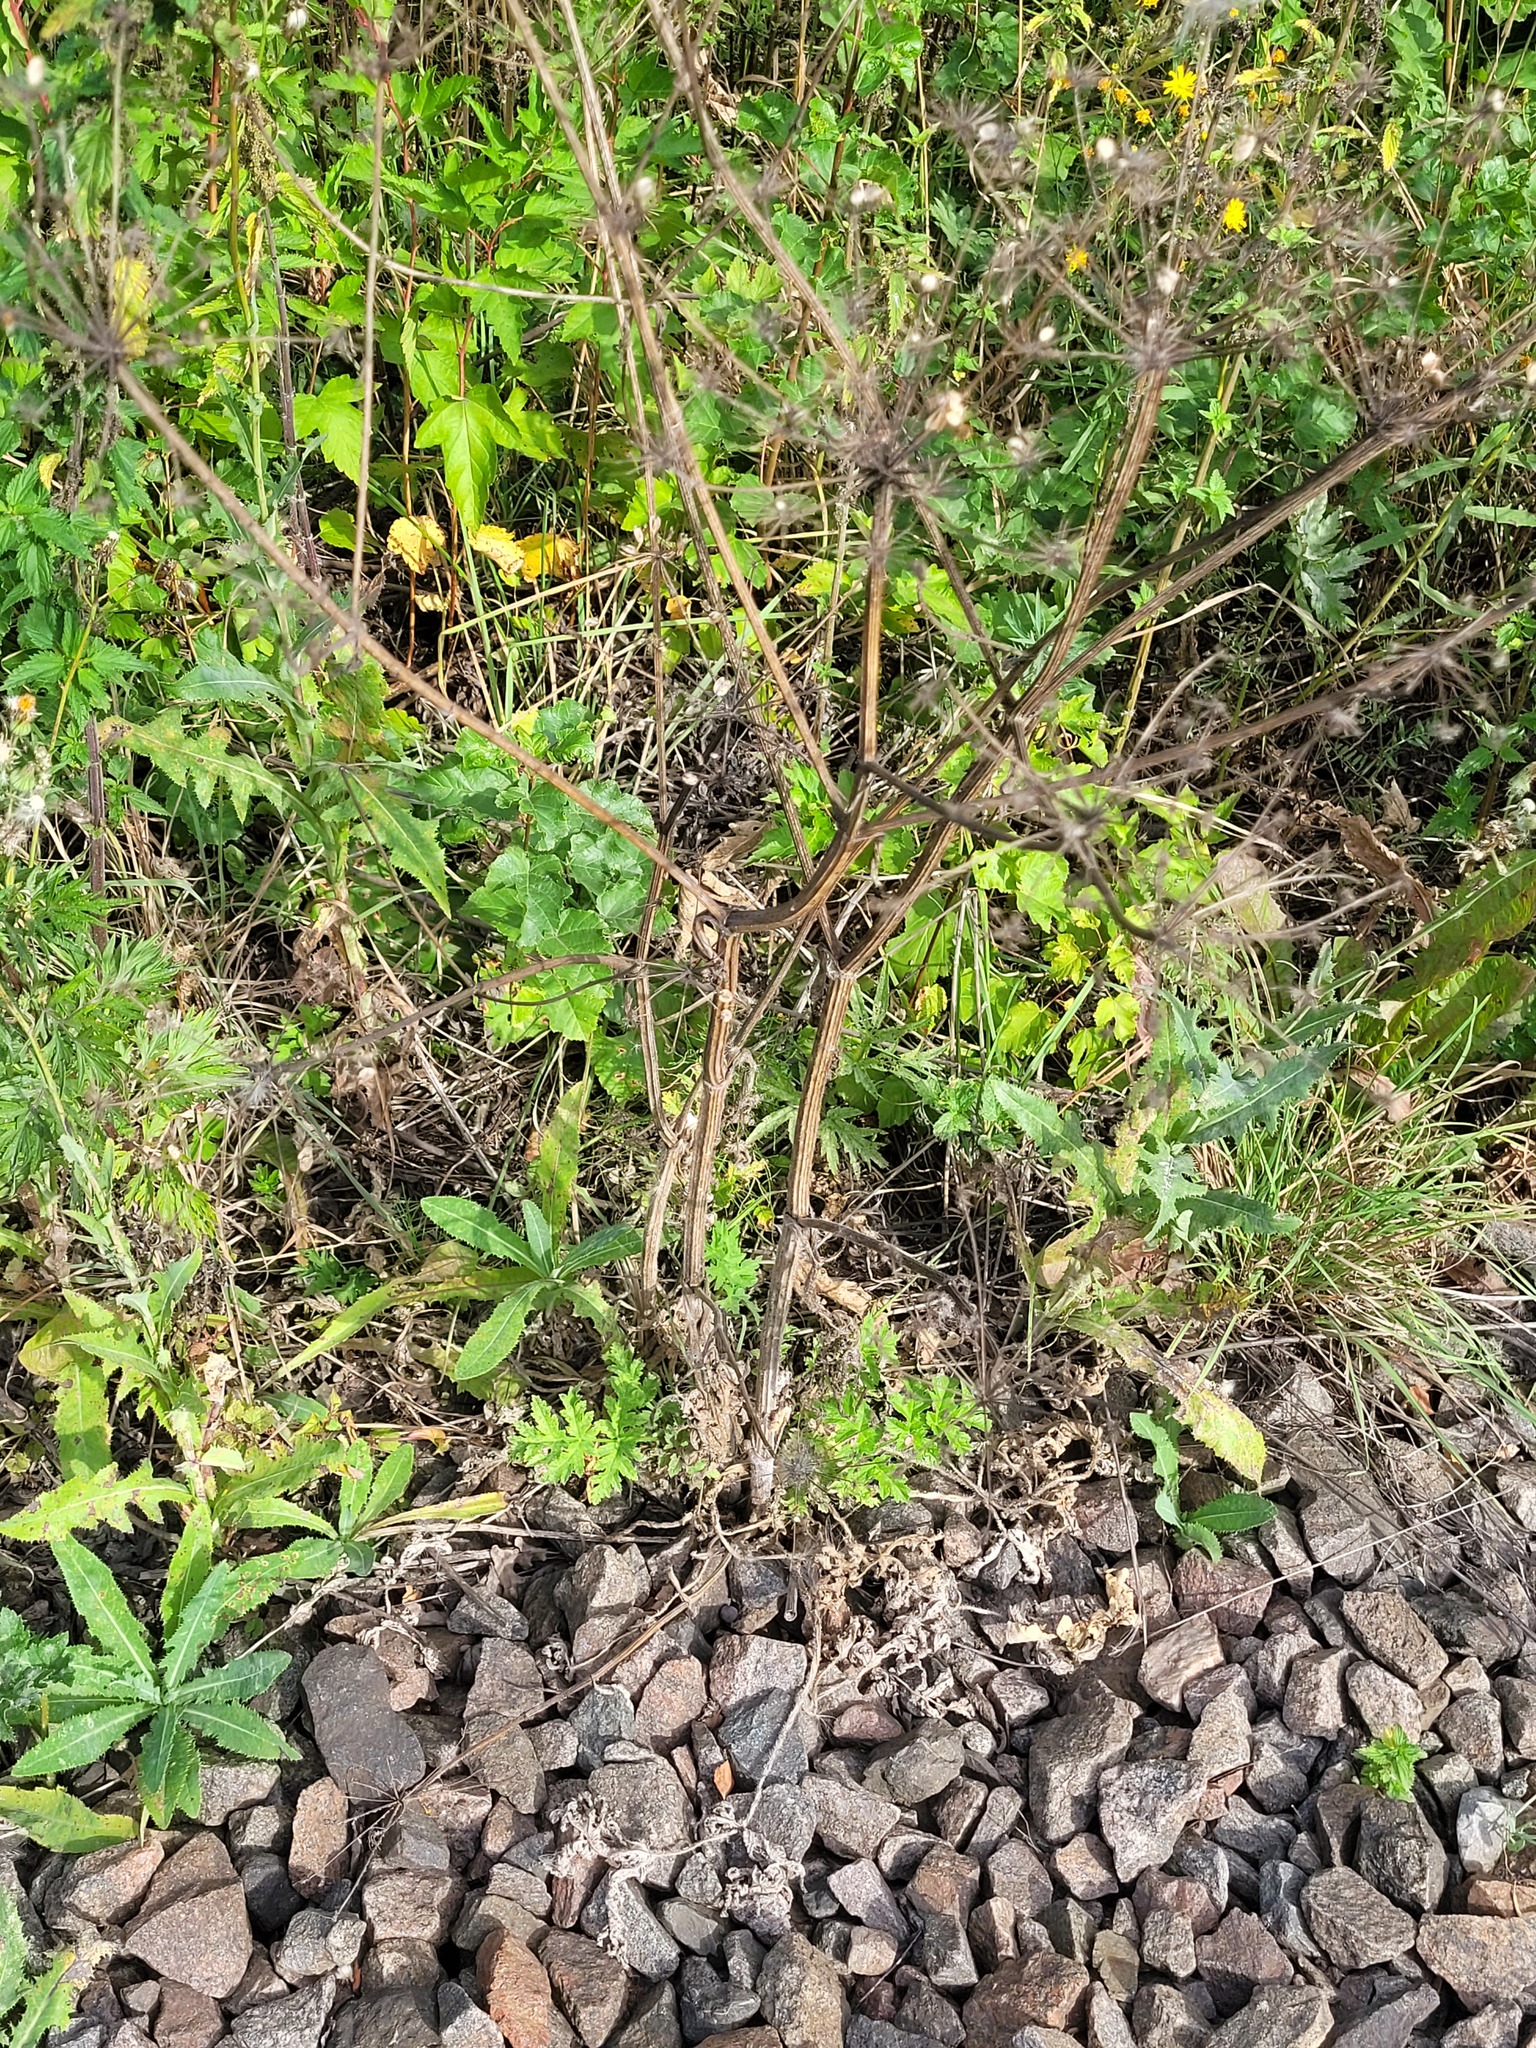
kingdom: Plantae
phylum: Tracheophyta
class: Magnoliopsida
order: Apiales
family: Apiaceae
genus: Heracleum
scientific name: Heracleum sphondylium
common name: Hogweed
